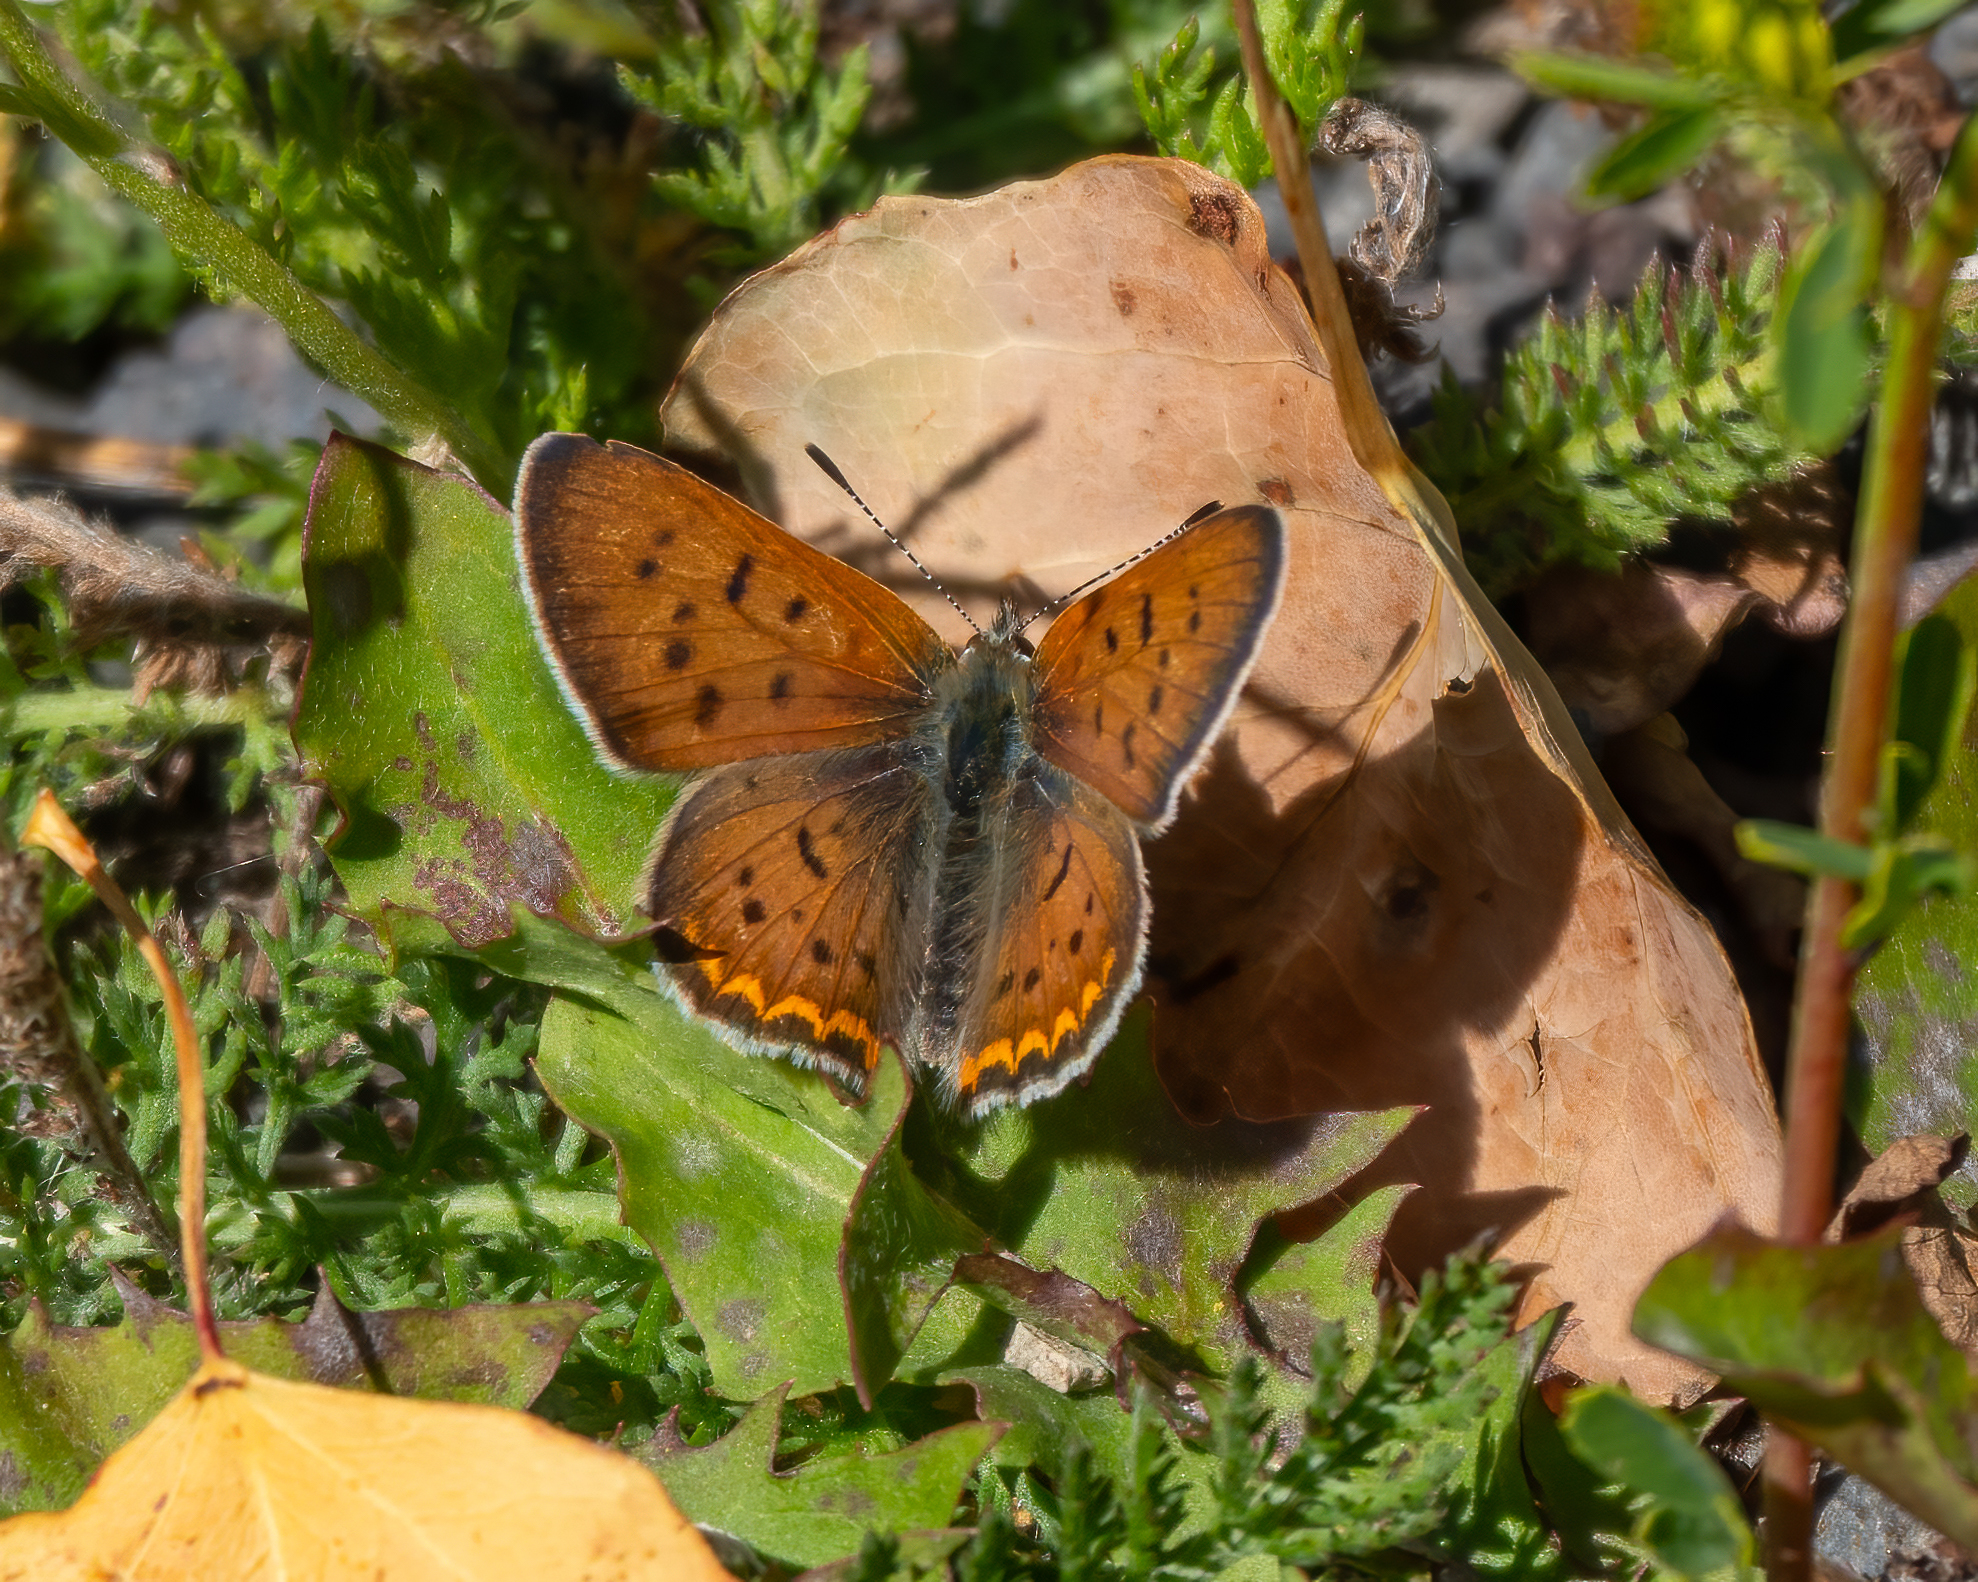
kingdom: Animalia
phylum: Arthropoda
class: Insecta
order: Lepidoptera
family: Lycaenidae
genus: Tharsalea
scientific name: Tharsalea helloides
